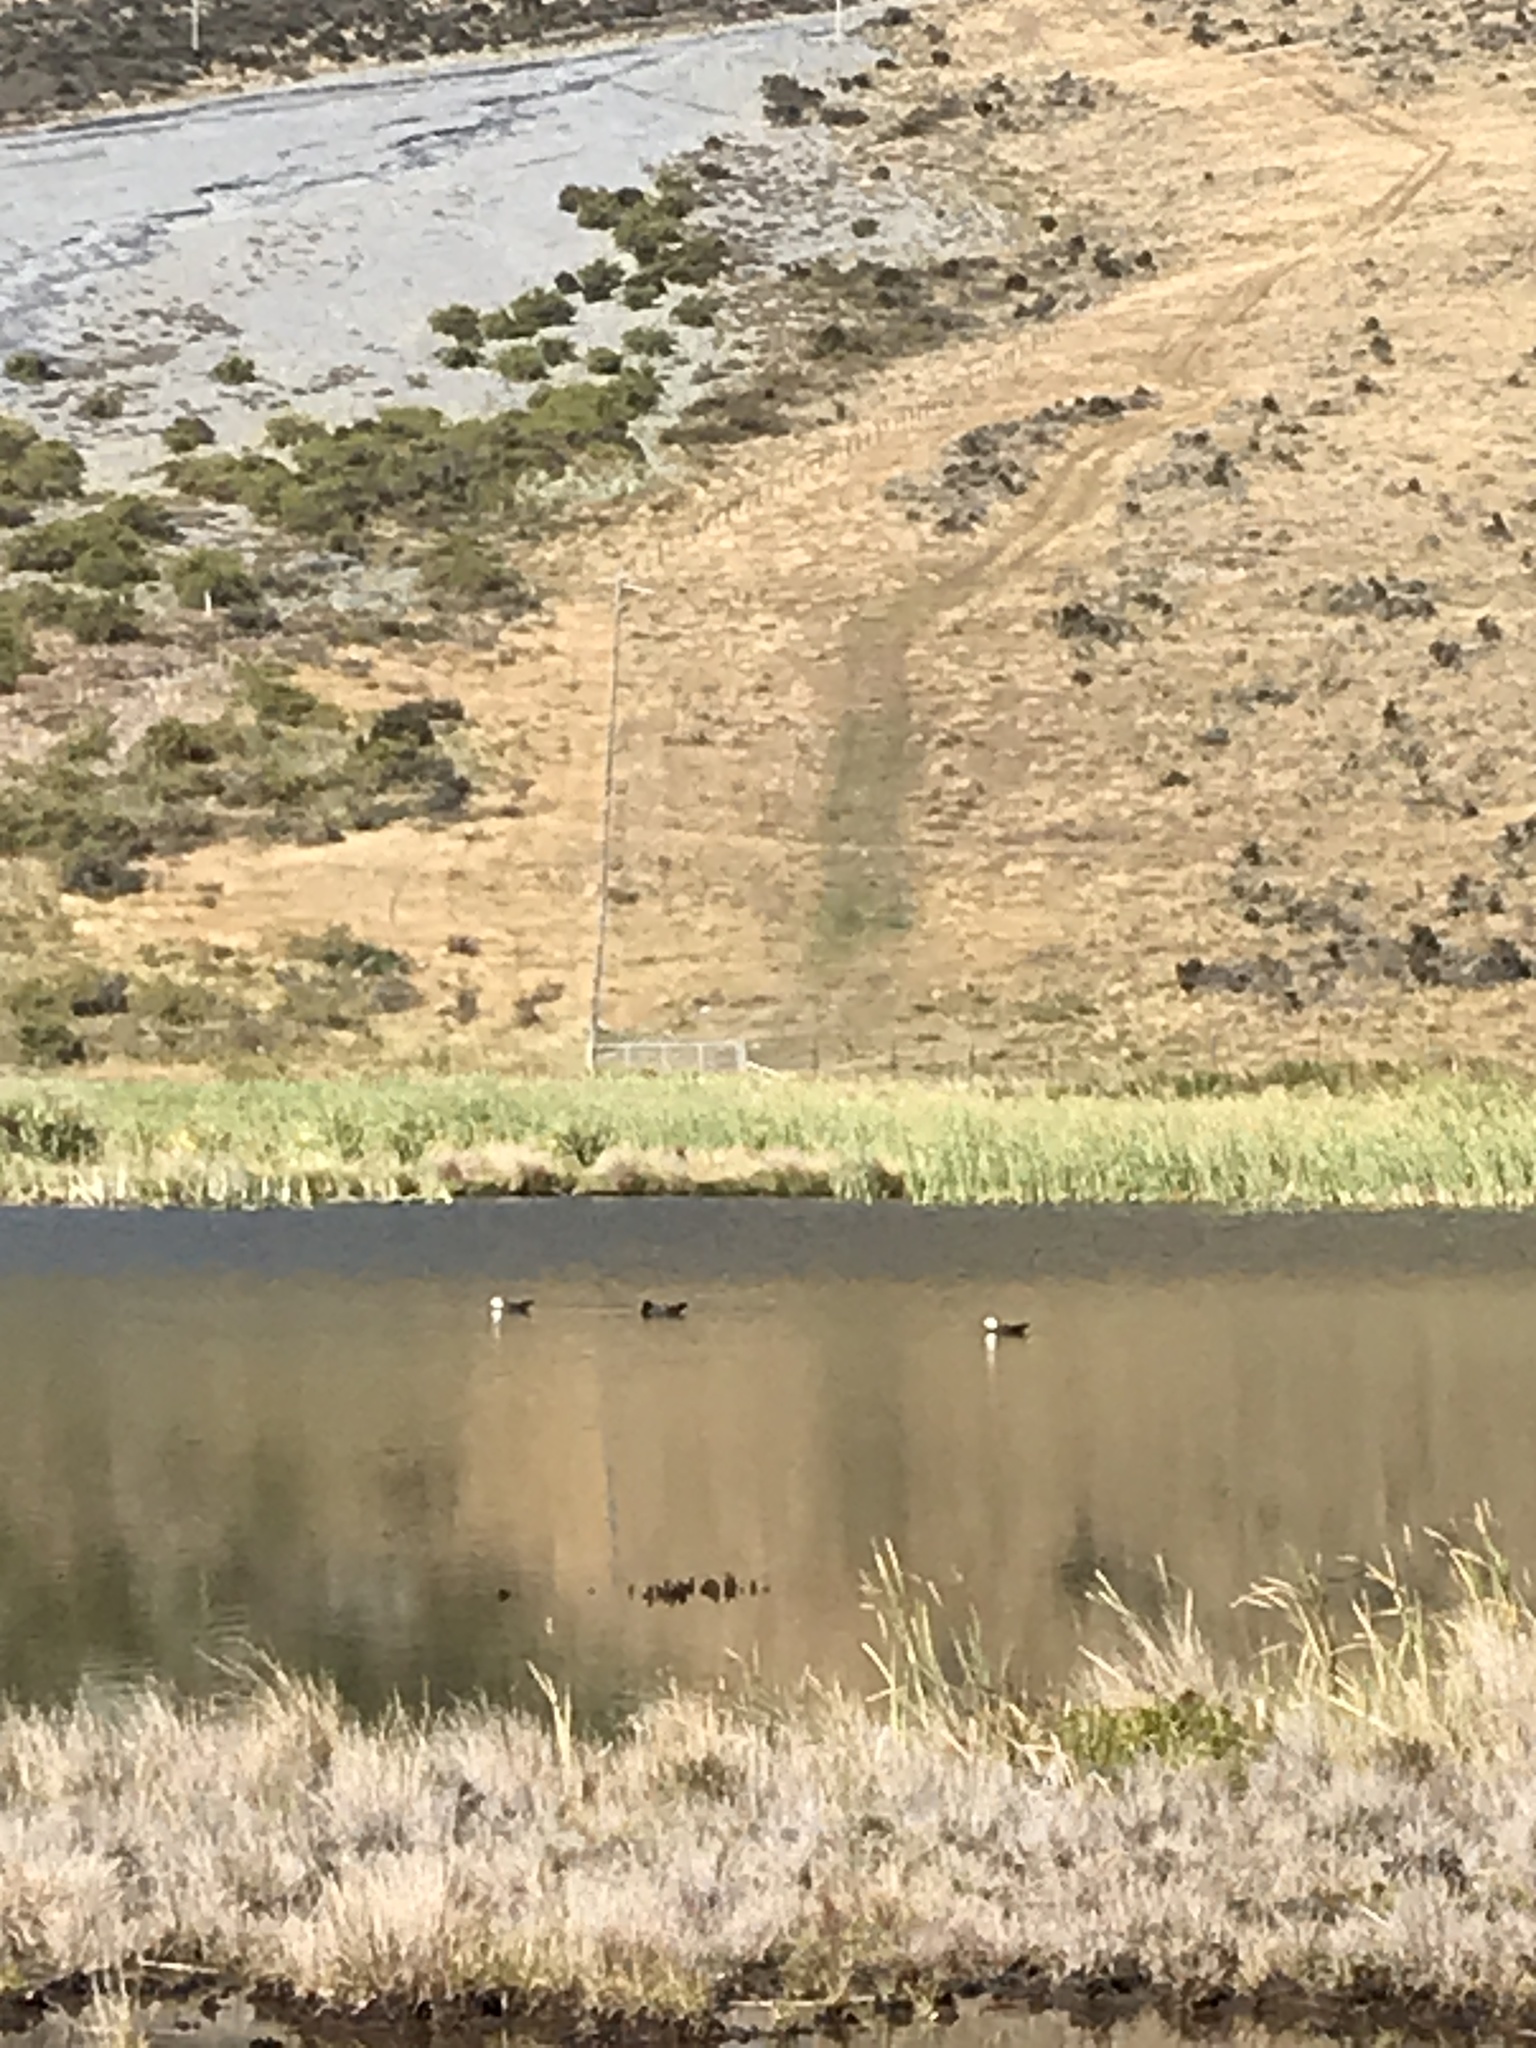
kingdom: Animalia
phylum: Chordata
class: Aves
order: Anseriformes
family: Anatidae
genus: Tadorna
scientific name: Tadorna variegata
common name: Paradise shelduck
